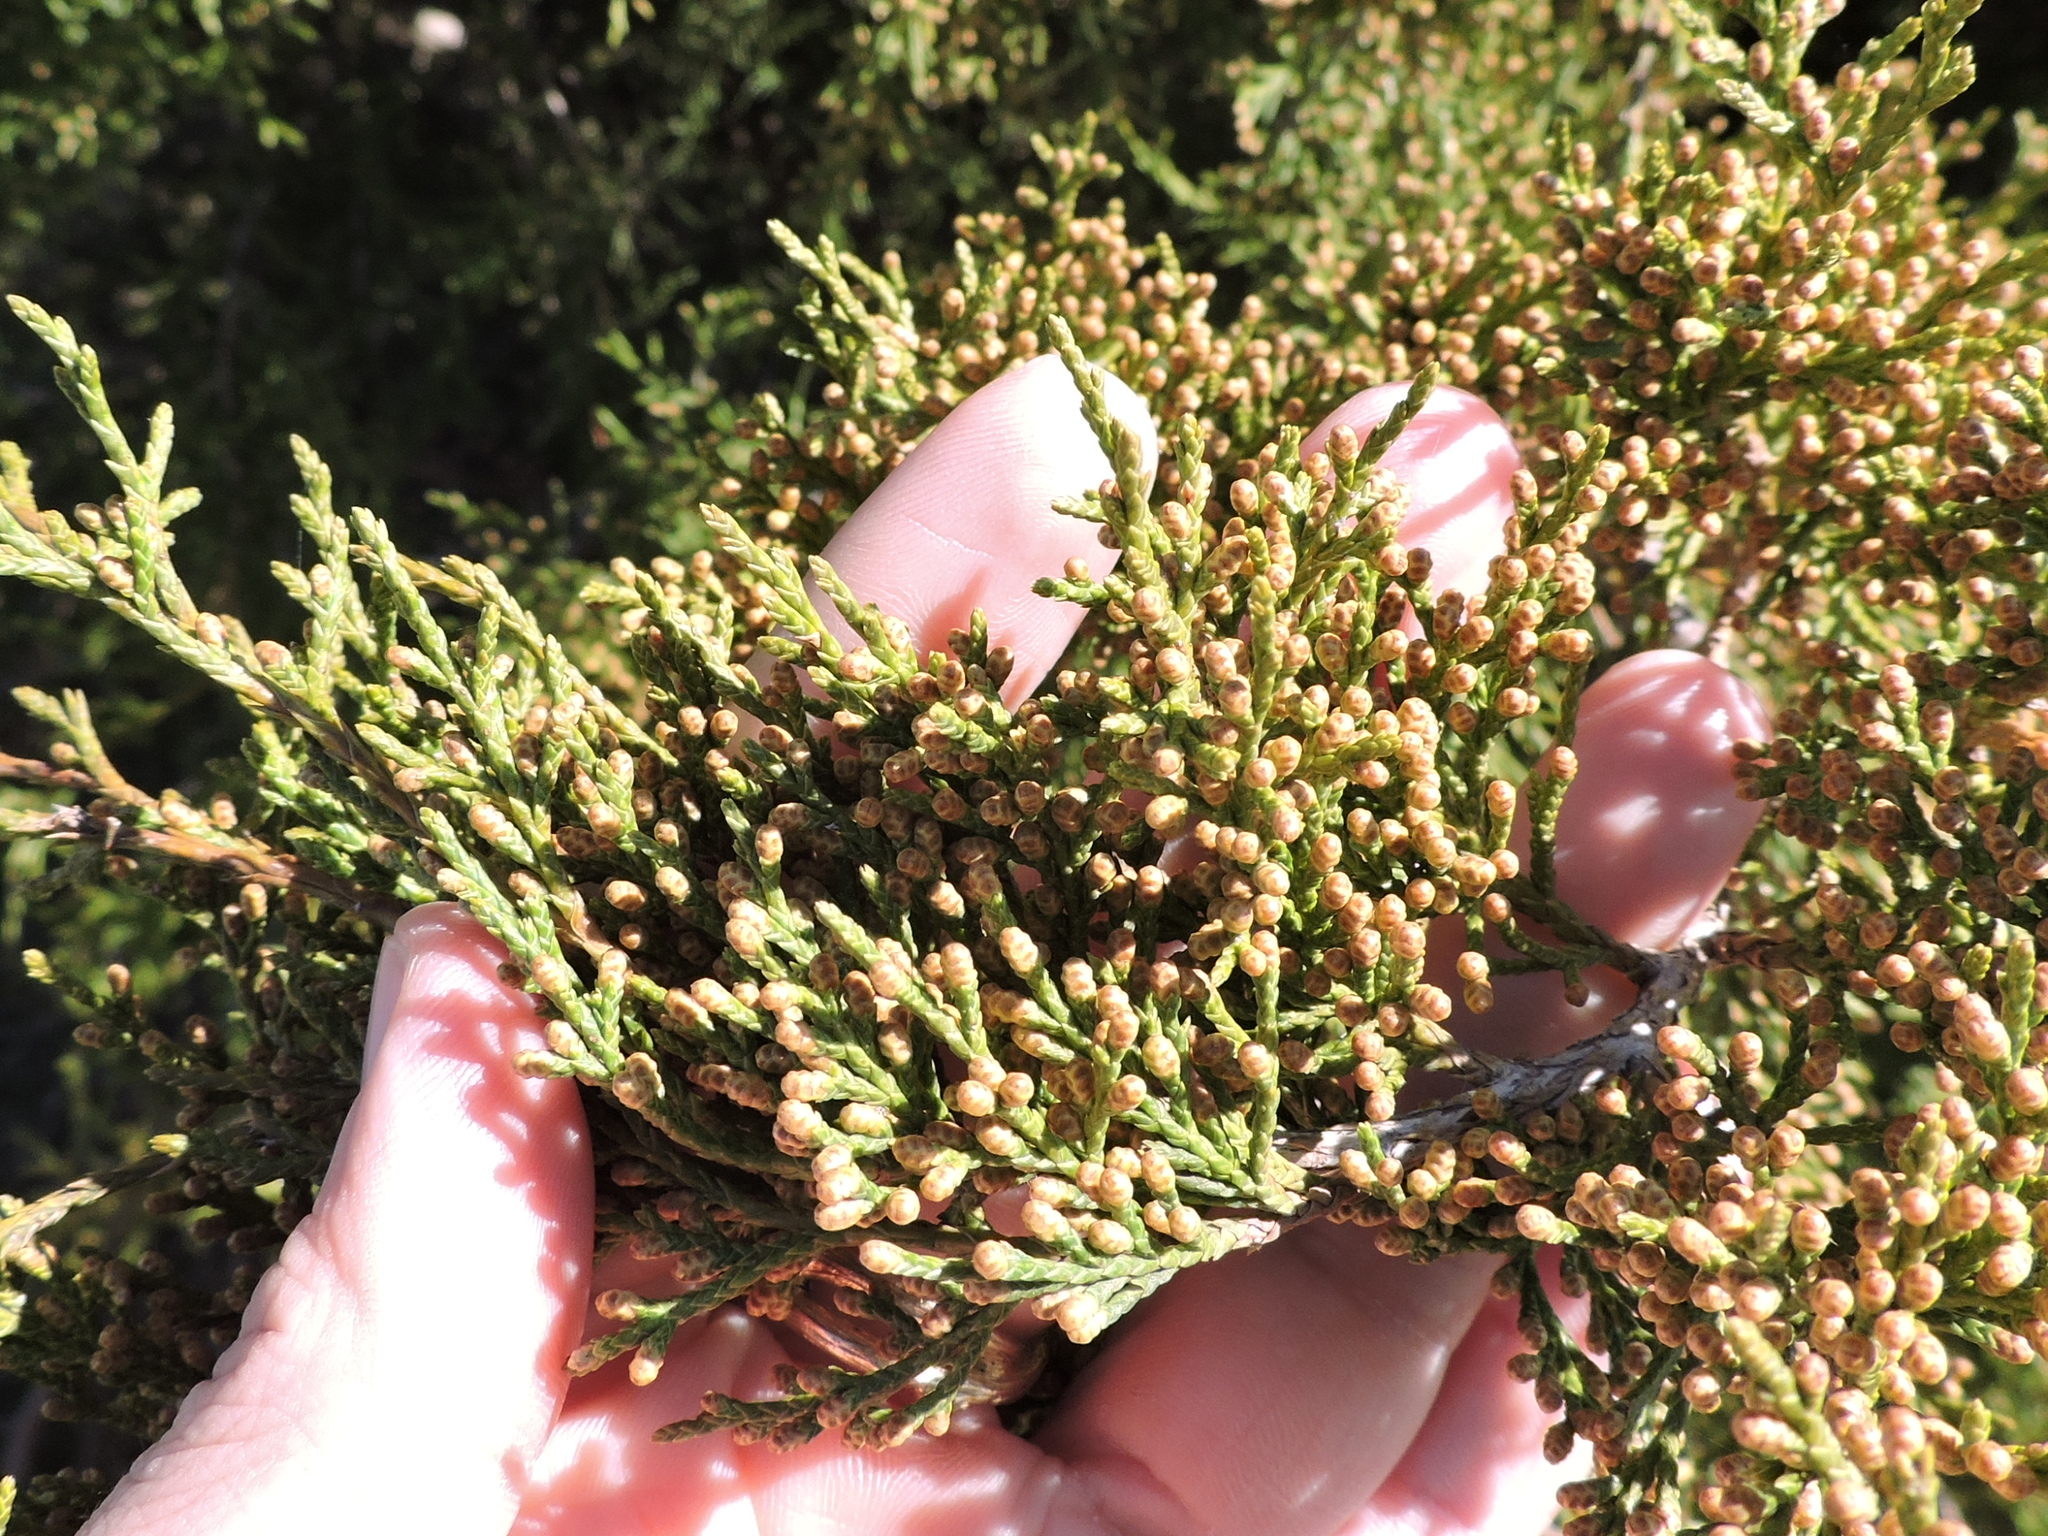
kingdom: Plantae
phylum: Tracheophyta
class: Pinopsida
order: Pinales
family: Cupressaceae
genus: Juniperus
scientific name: Juniperus virginiana
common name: Red juniper
